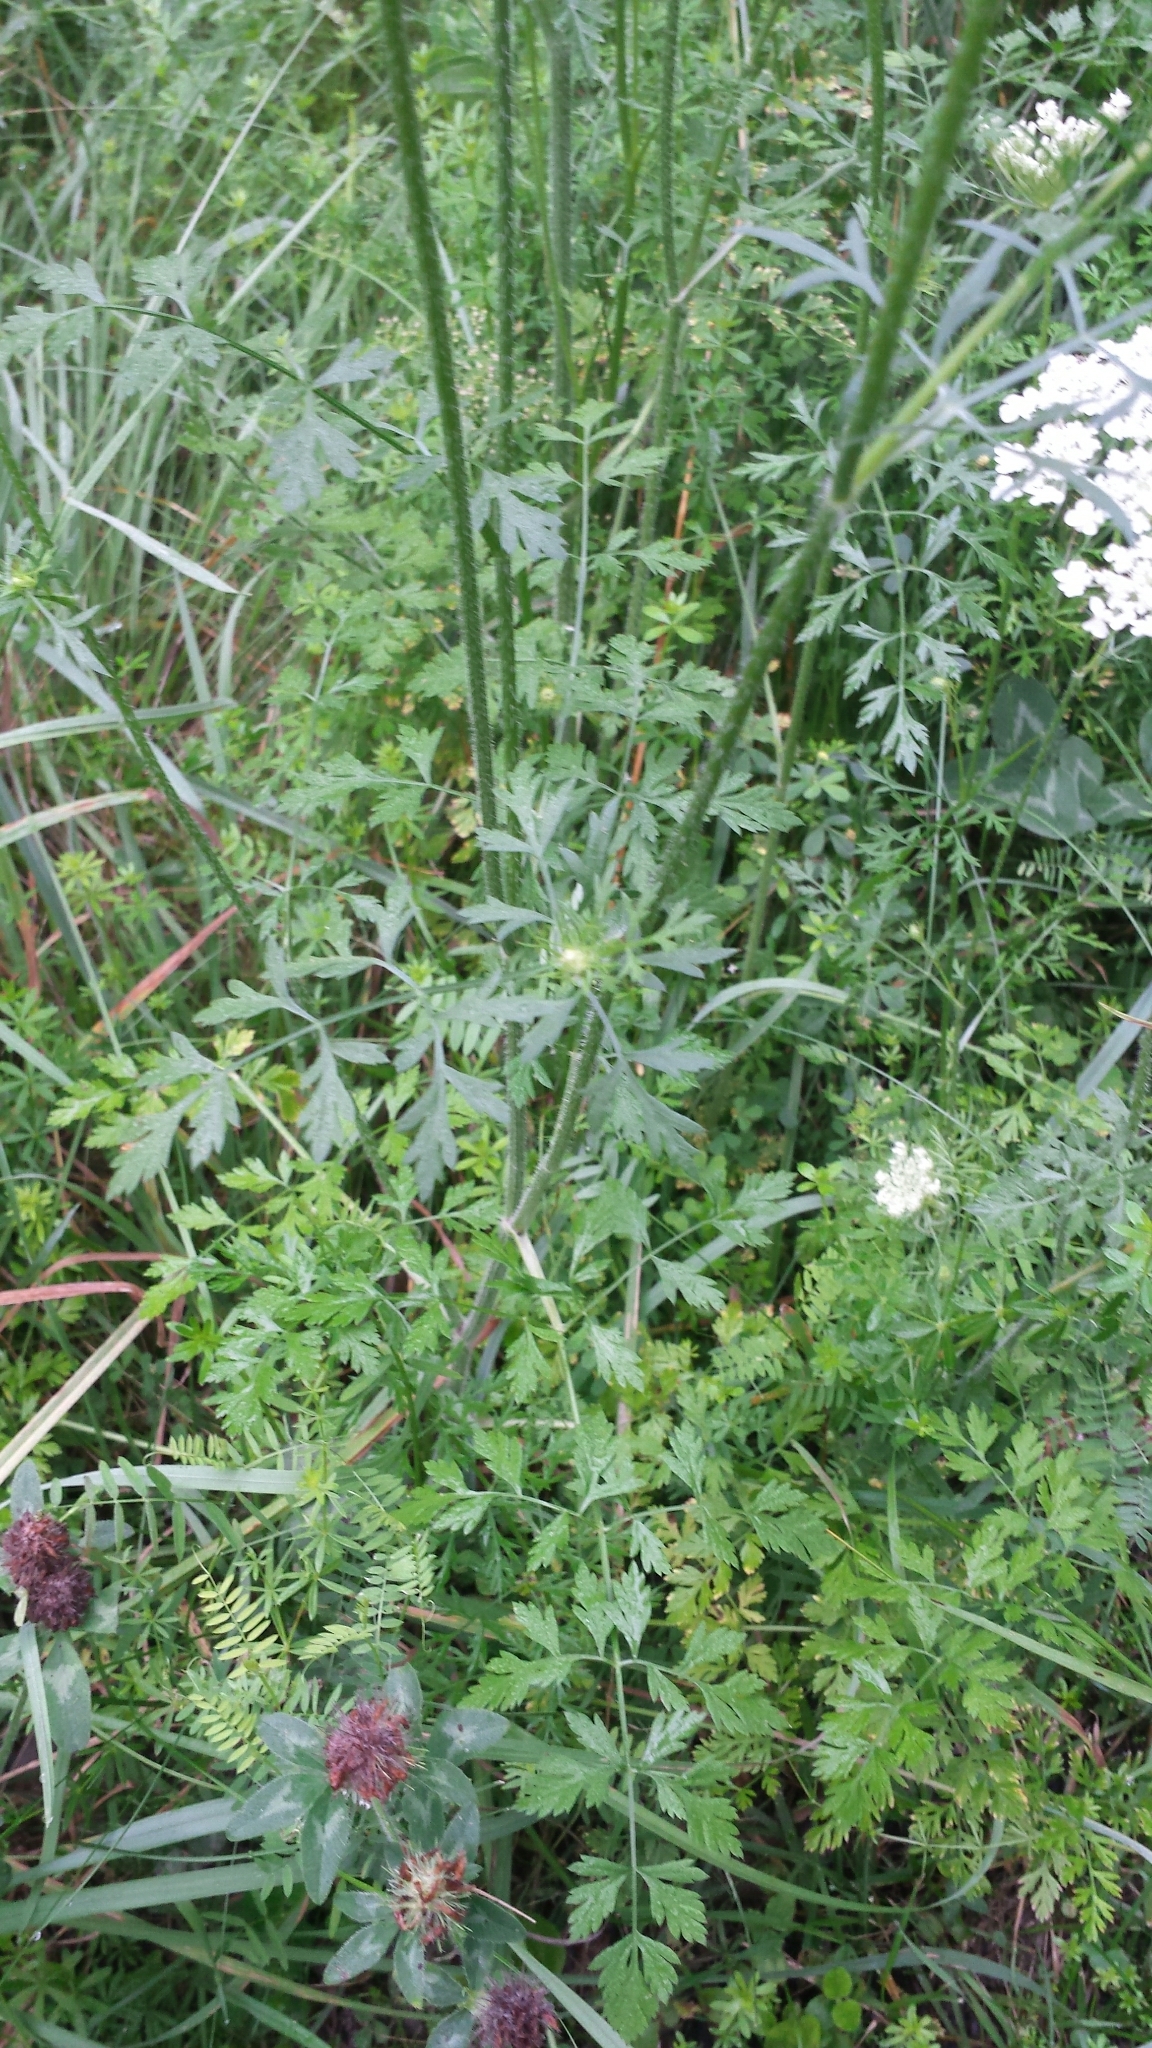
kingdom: Plantae
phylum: Tracheophyta
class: Magnoliopsida
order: Apiales
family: Apiaceae
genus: Daucus
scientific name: Daucus carota
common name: Wild carrot
